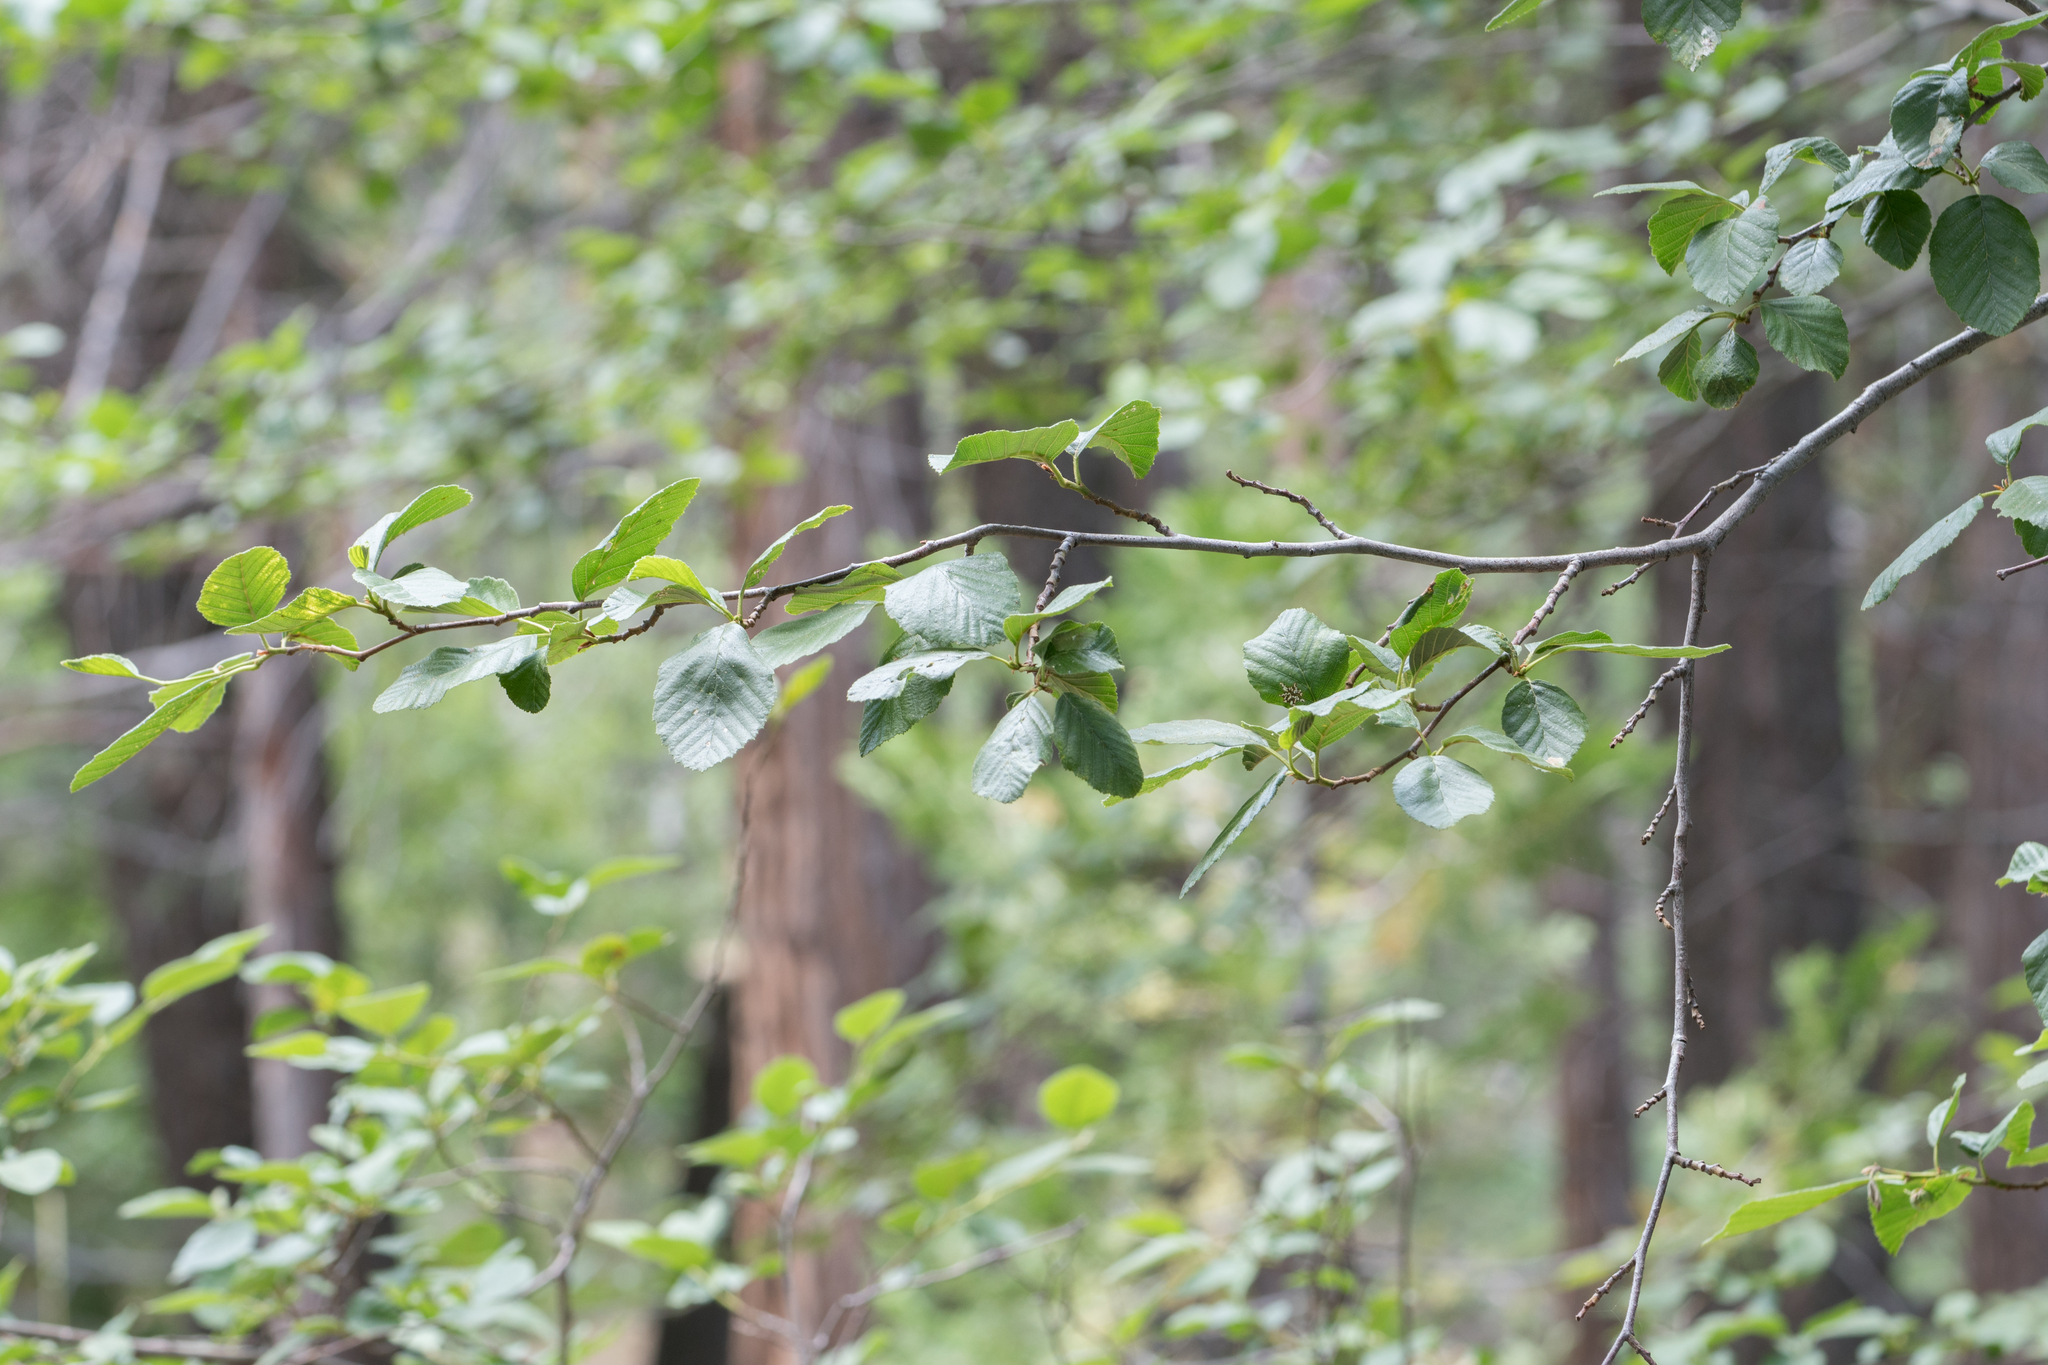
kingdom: Plantae
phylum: Tracheophyta
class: Magnoliopsida
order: Fagales
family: Betulaceae
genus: Alnus
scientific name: Alnus rhombifolia
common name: California alder
